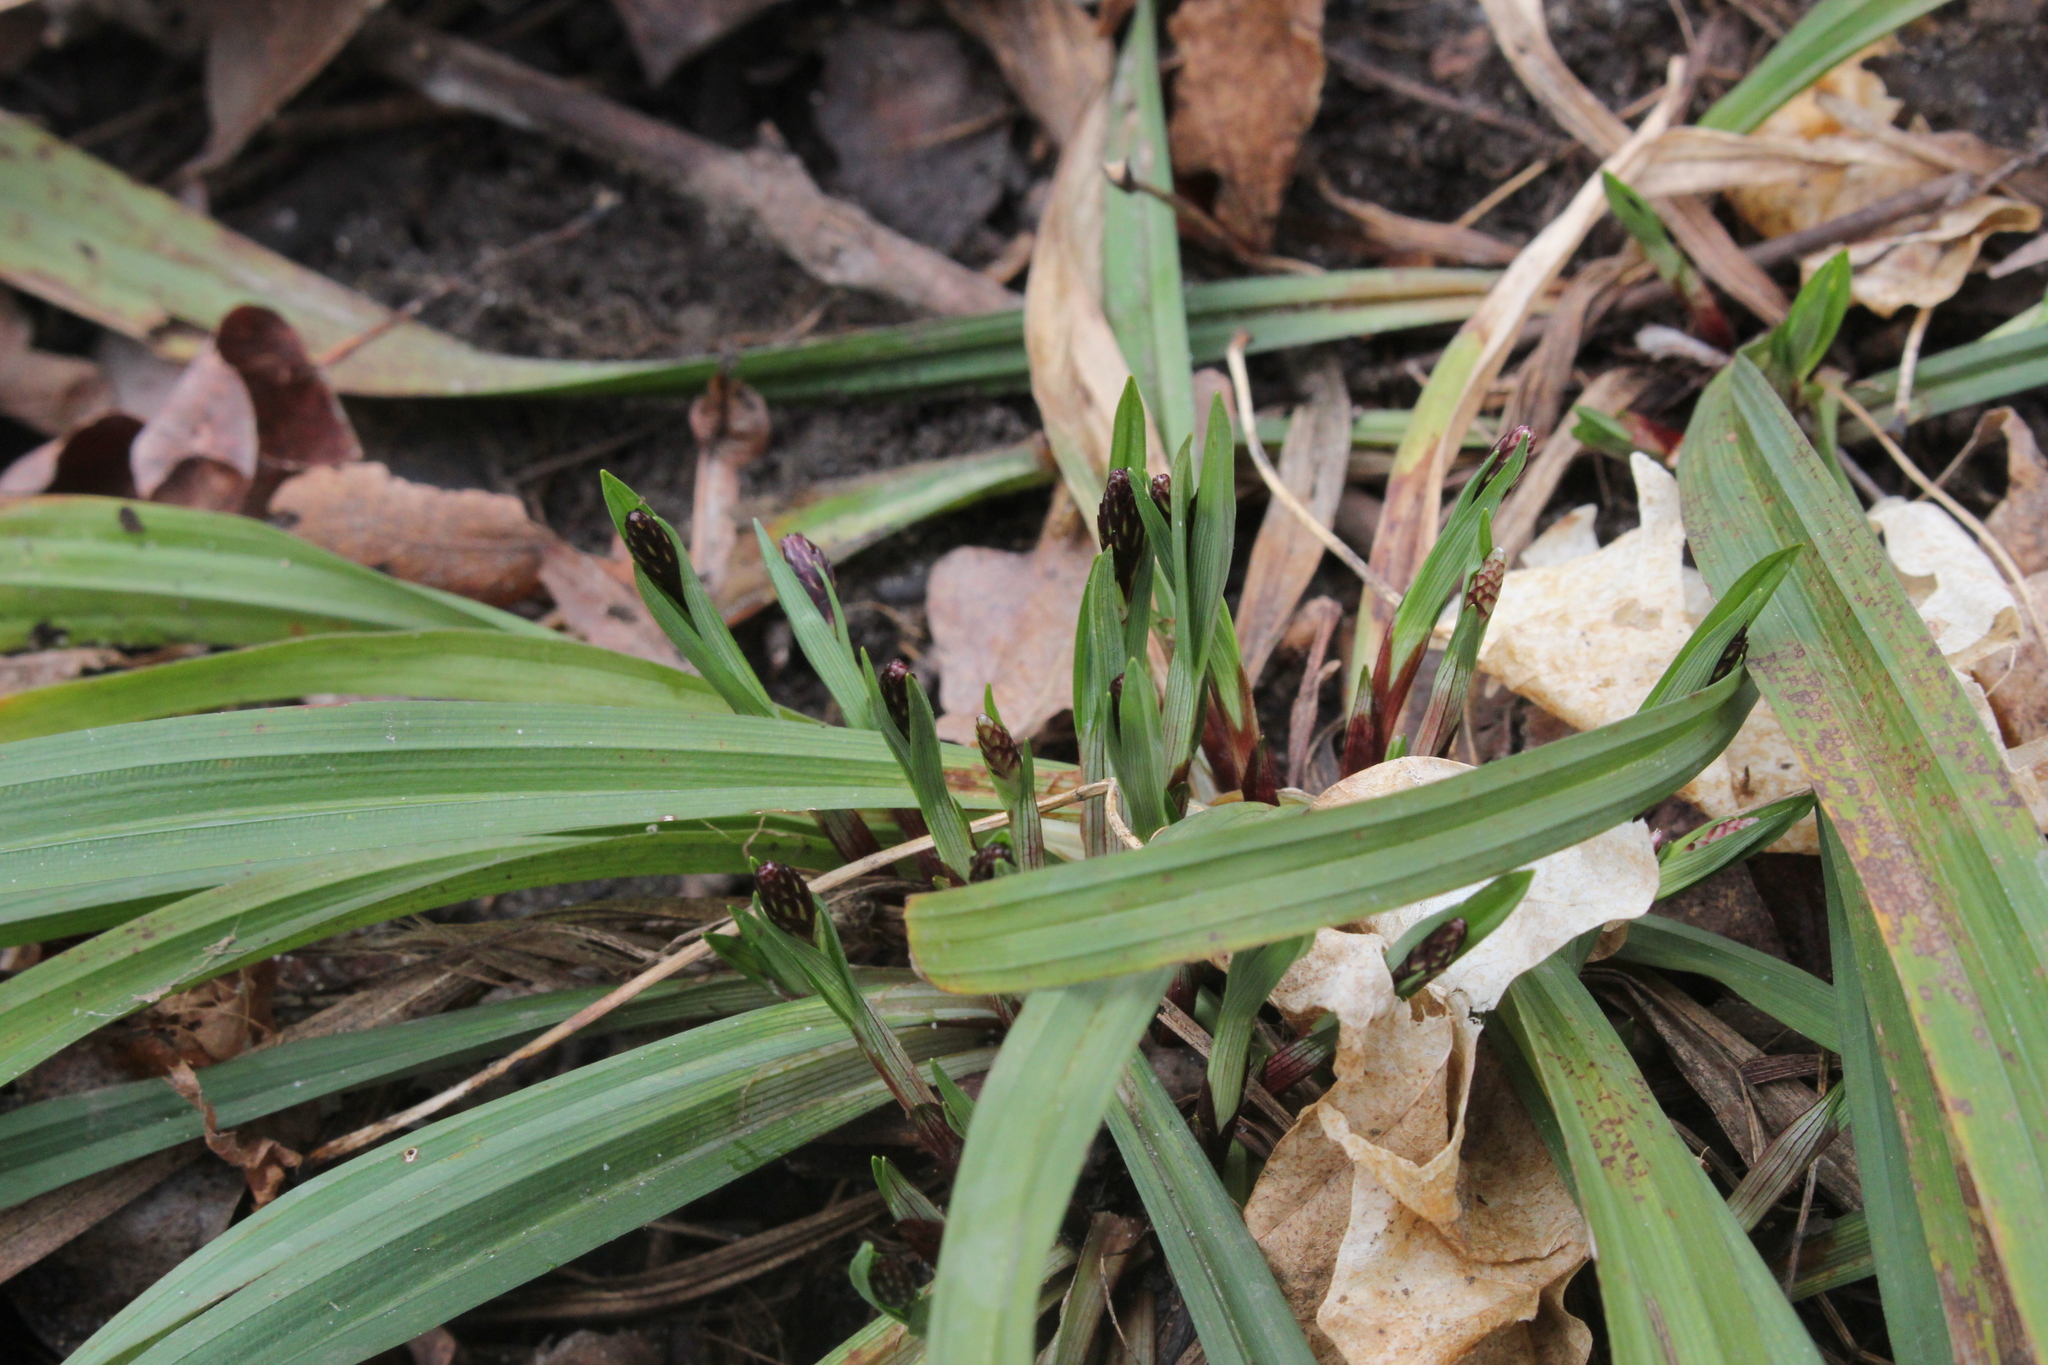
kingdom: Plantae
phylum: Tracheophyta
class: Liliopsida
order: Poales
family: Cyperaceae
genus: Carex
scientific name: Carex careyana
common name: Carey's sedge
